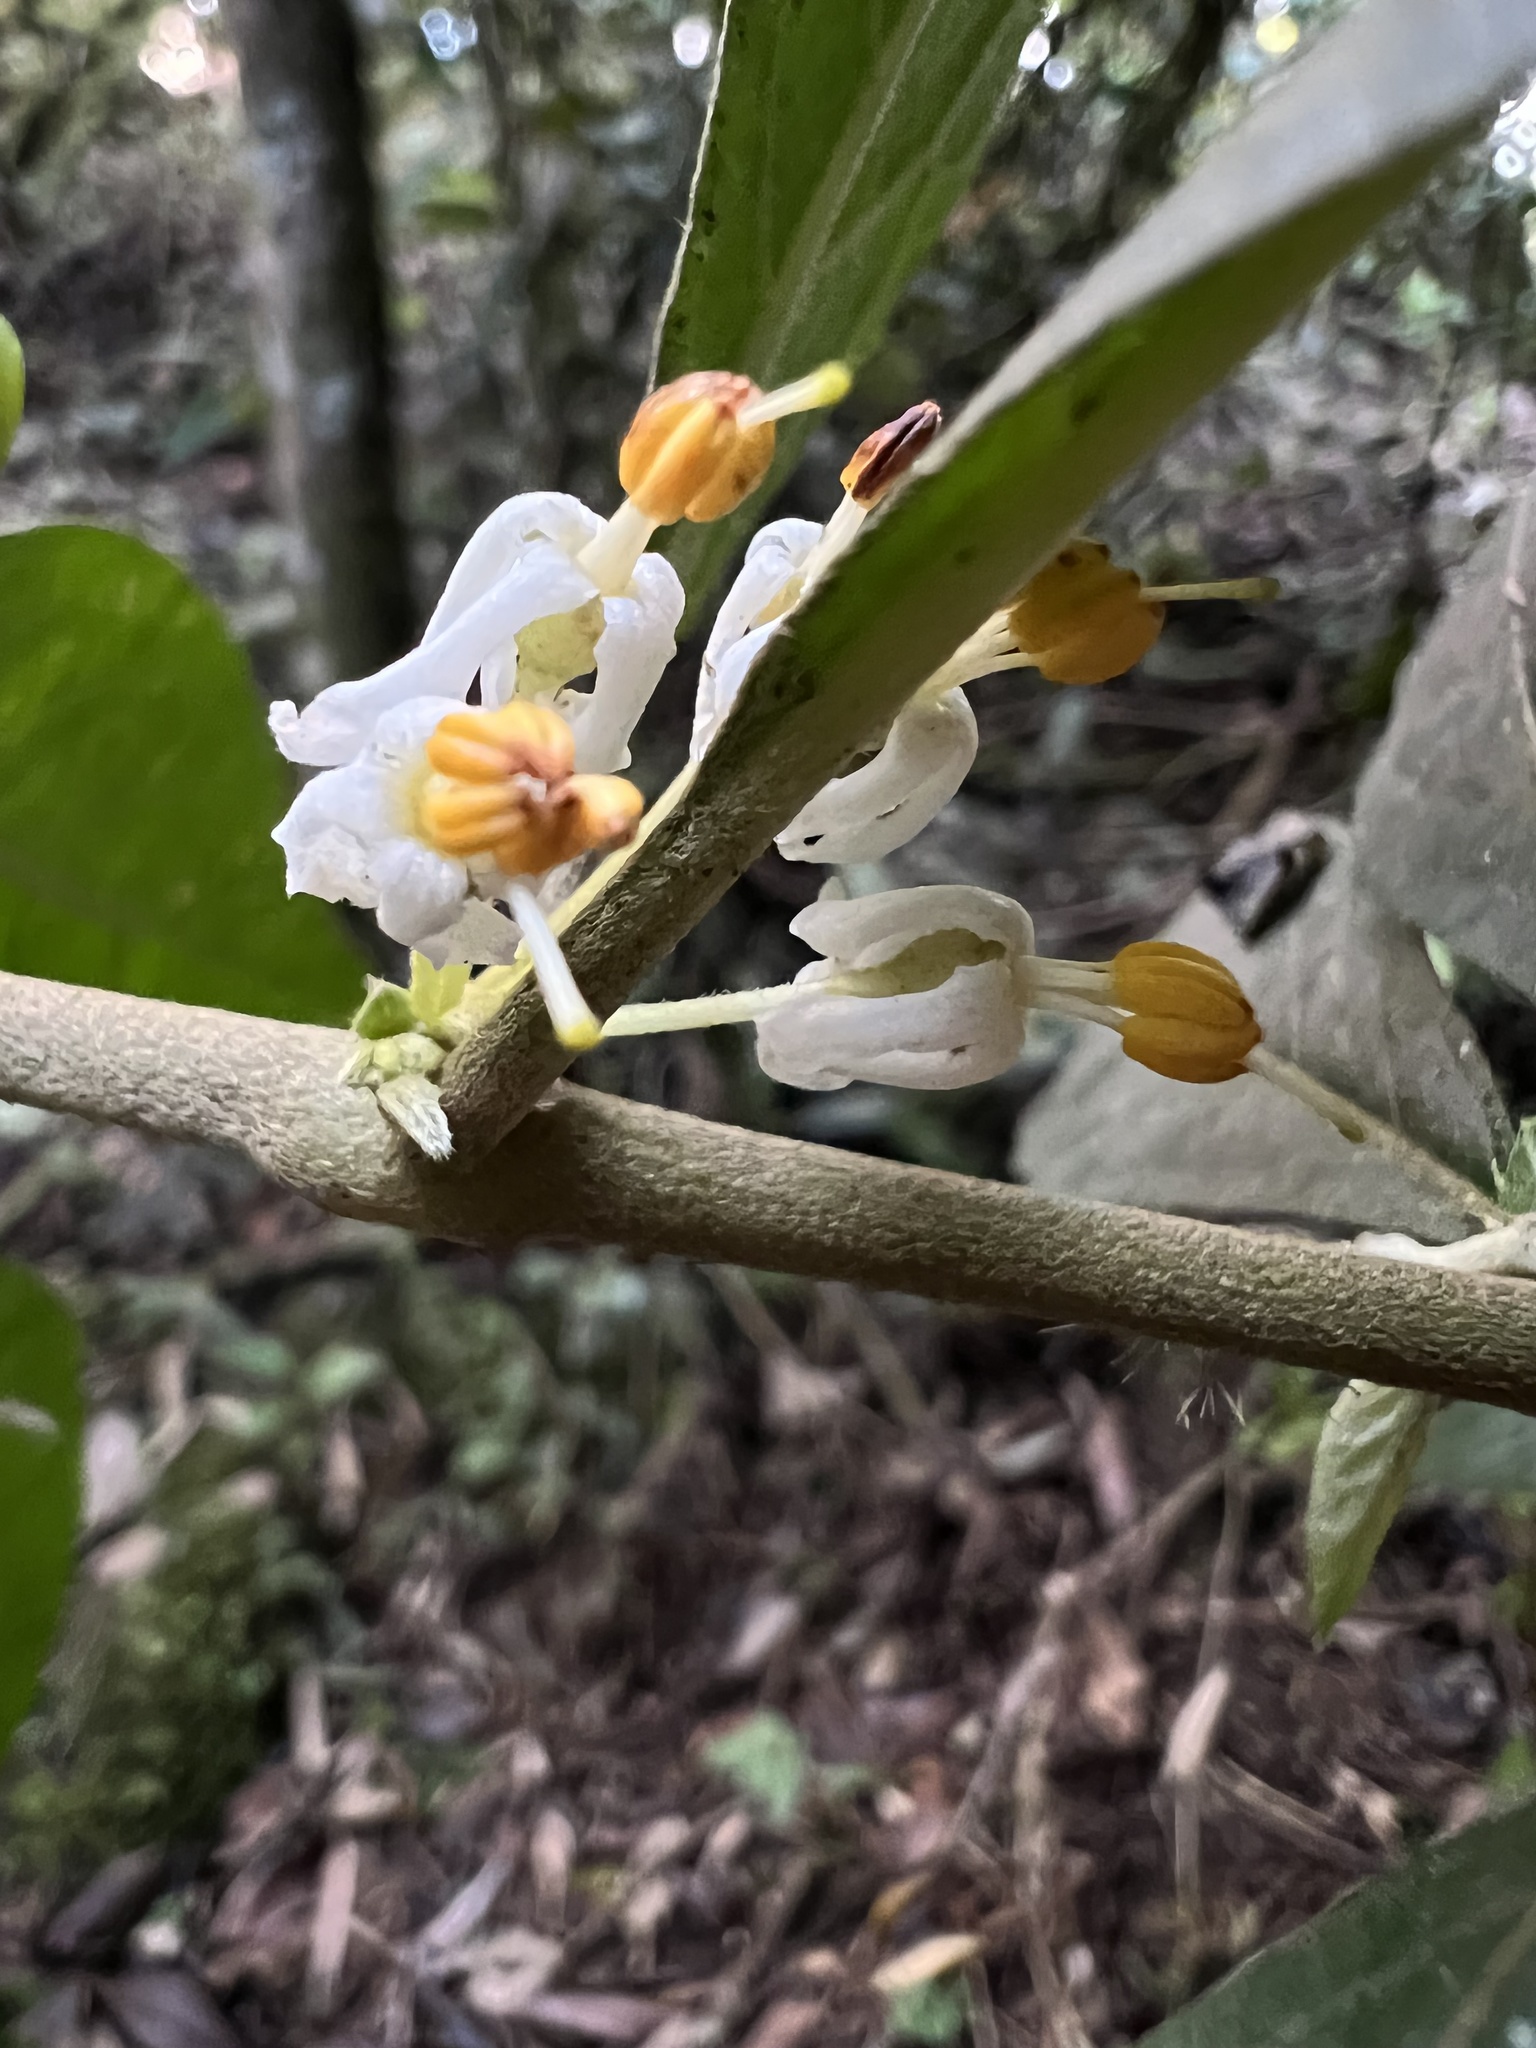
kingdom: Plantae
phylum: Tracheophyta
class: Magnoliopsida
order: Solanales
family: Solanaceae
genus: Lycianthes
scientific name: Lycianthes radiata
